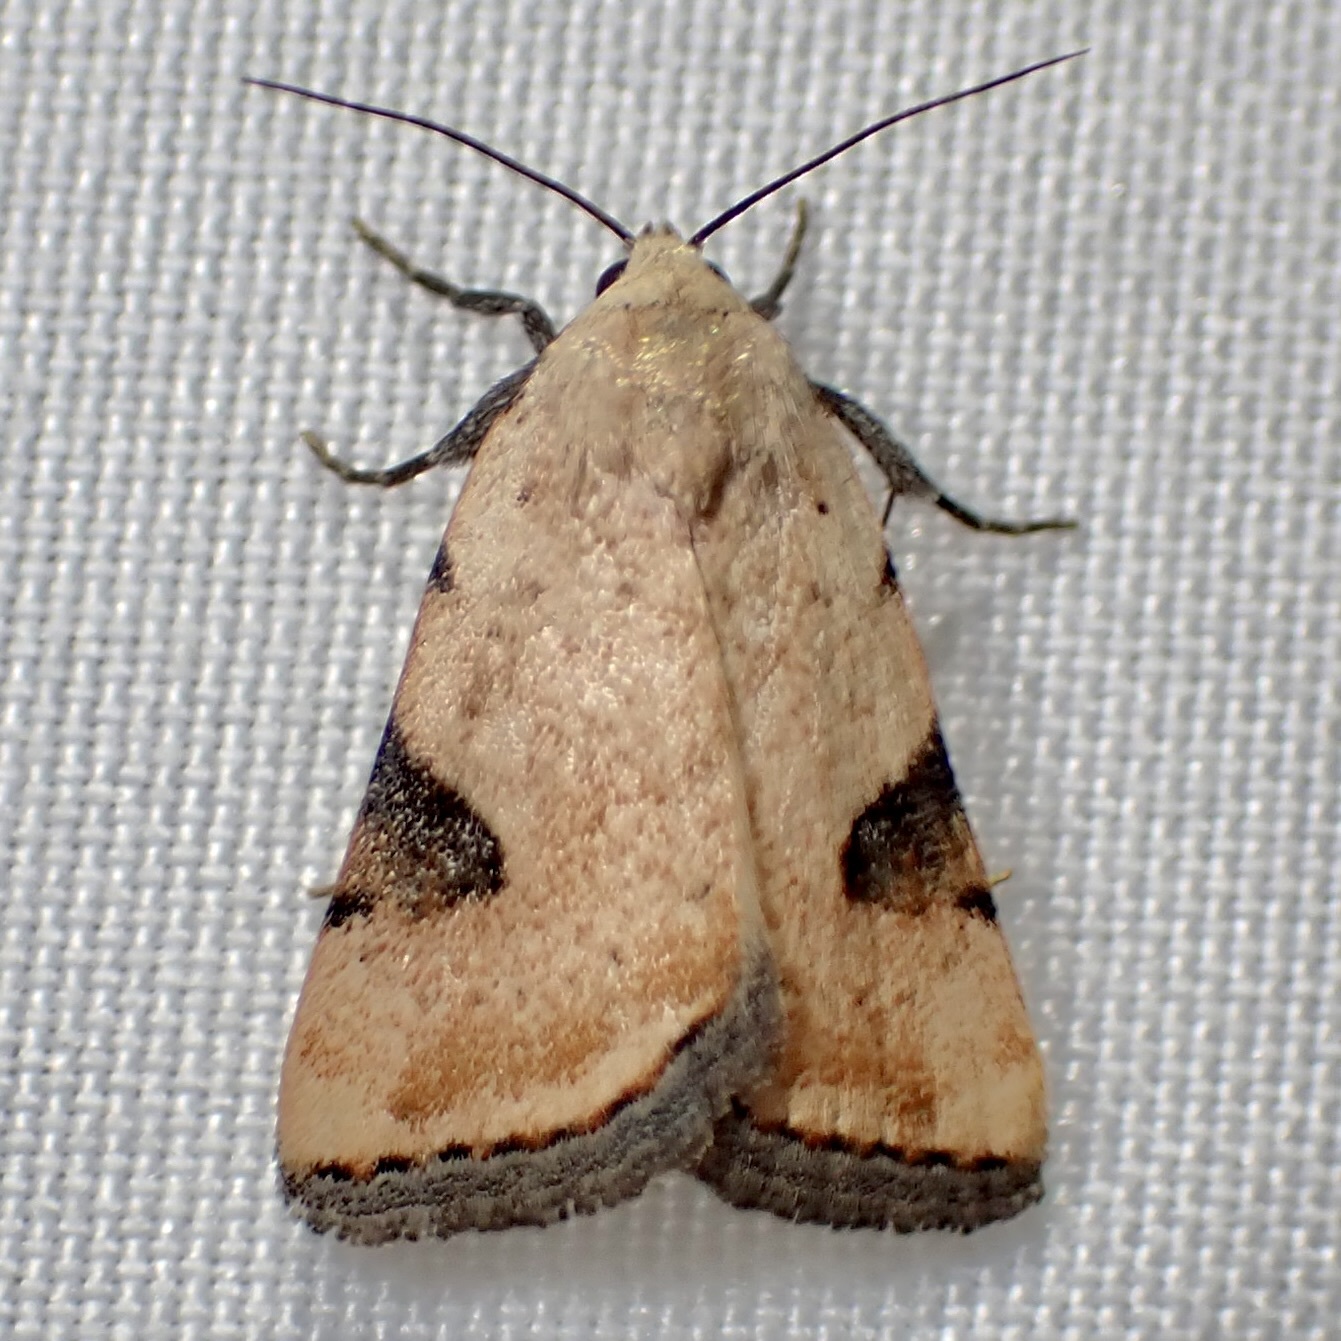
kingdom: Animalia
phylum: Arthropoda
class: Insecta
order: Lepidoptera
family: Noctuidae
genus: Micrathetis
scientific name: Micrathetis costiplaga
